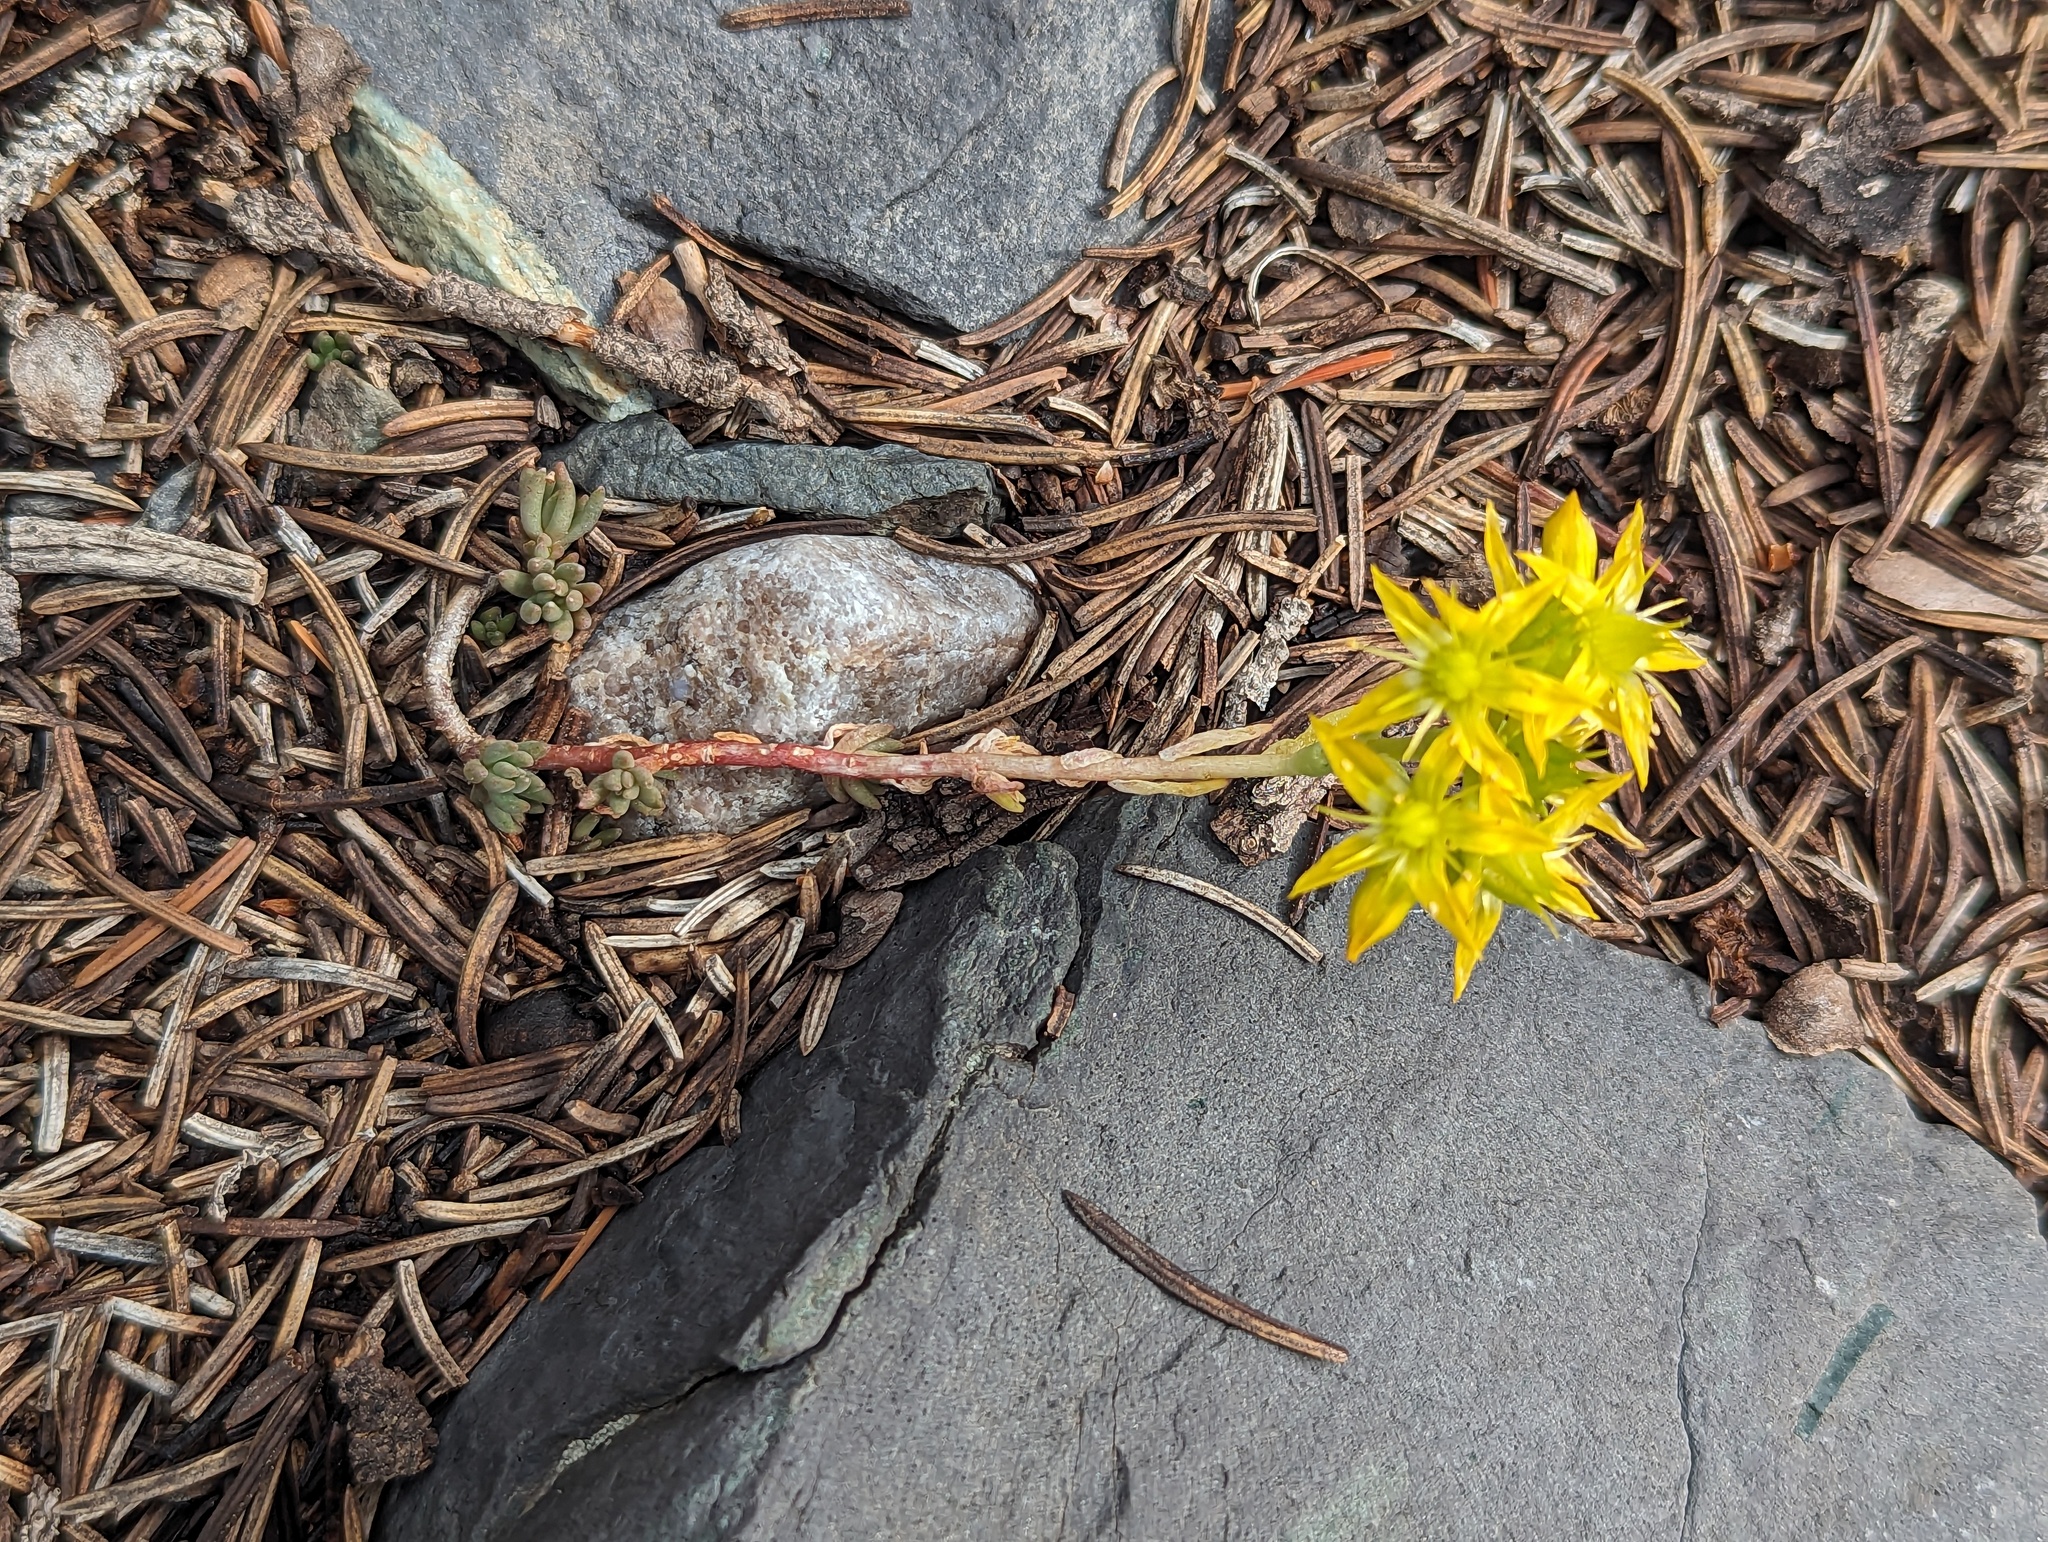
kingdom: Plantae
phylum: Tracheophyta
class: Magnoliopsida
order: Saxifragales
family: Crassulaceae
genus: Sedum
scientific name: Sedum lanceolatum
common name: Common stonecrop
